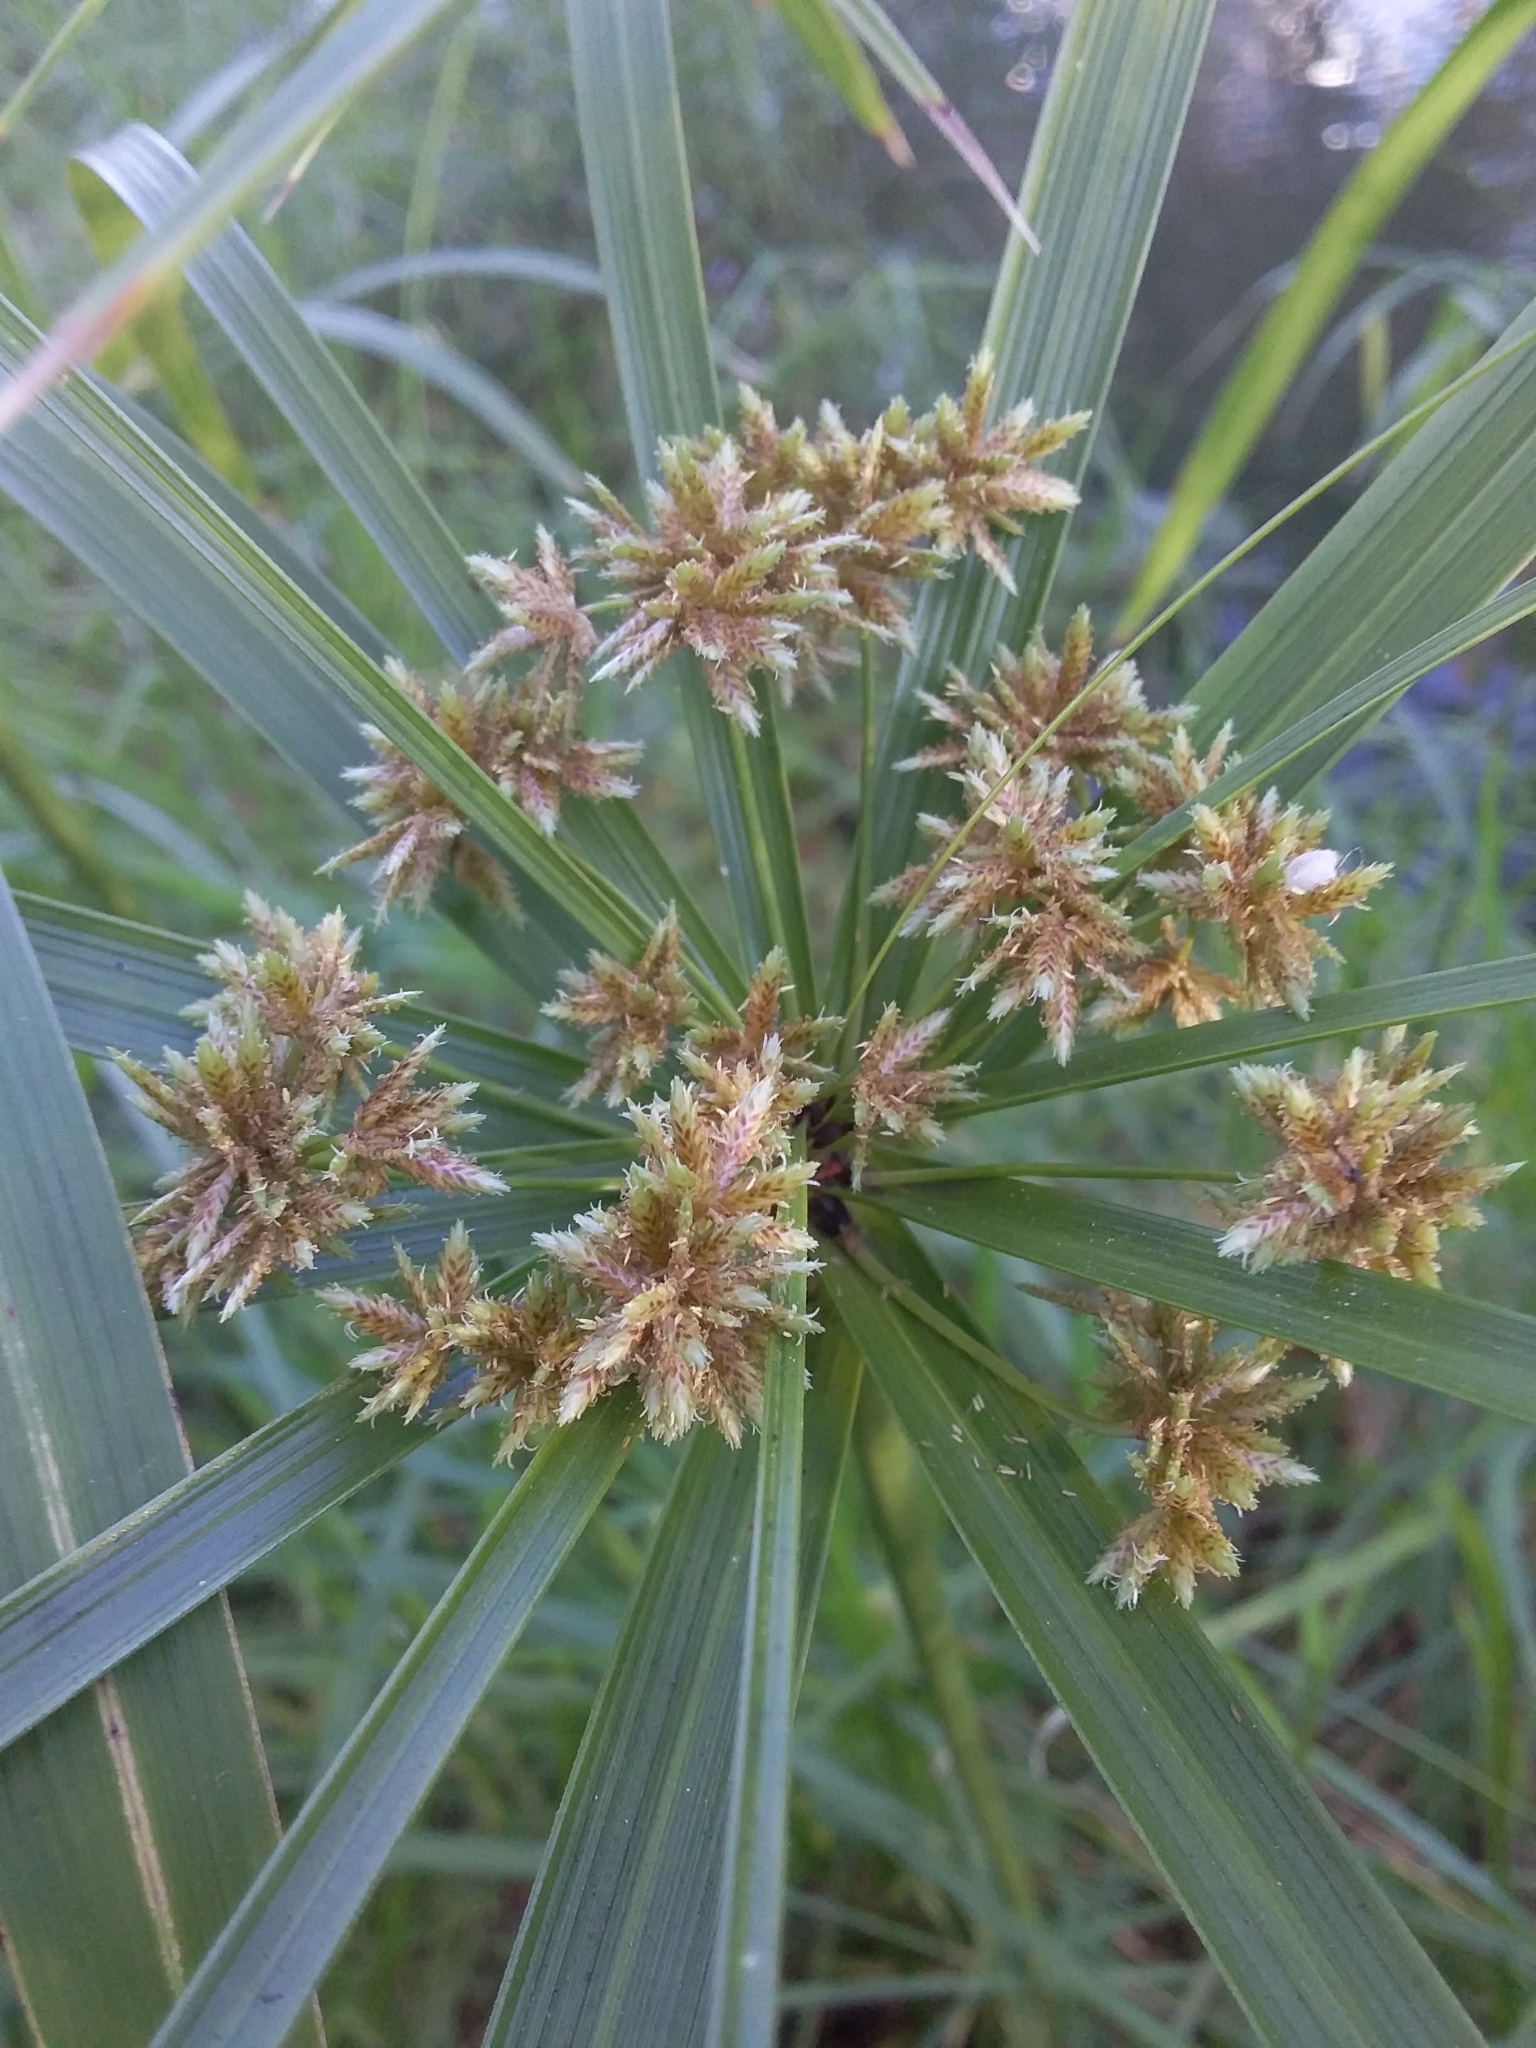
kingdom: Plantae
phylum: Tracheophyta
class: Liliopsida
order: Poales
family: Cyperaceae
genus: Cyperus
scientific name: Cyperus alternifolius
